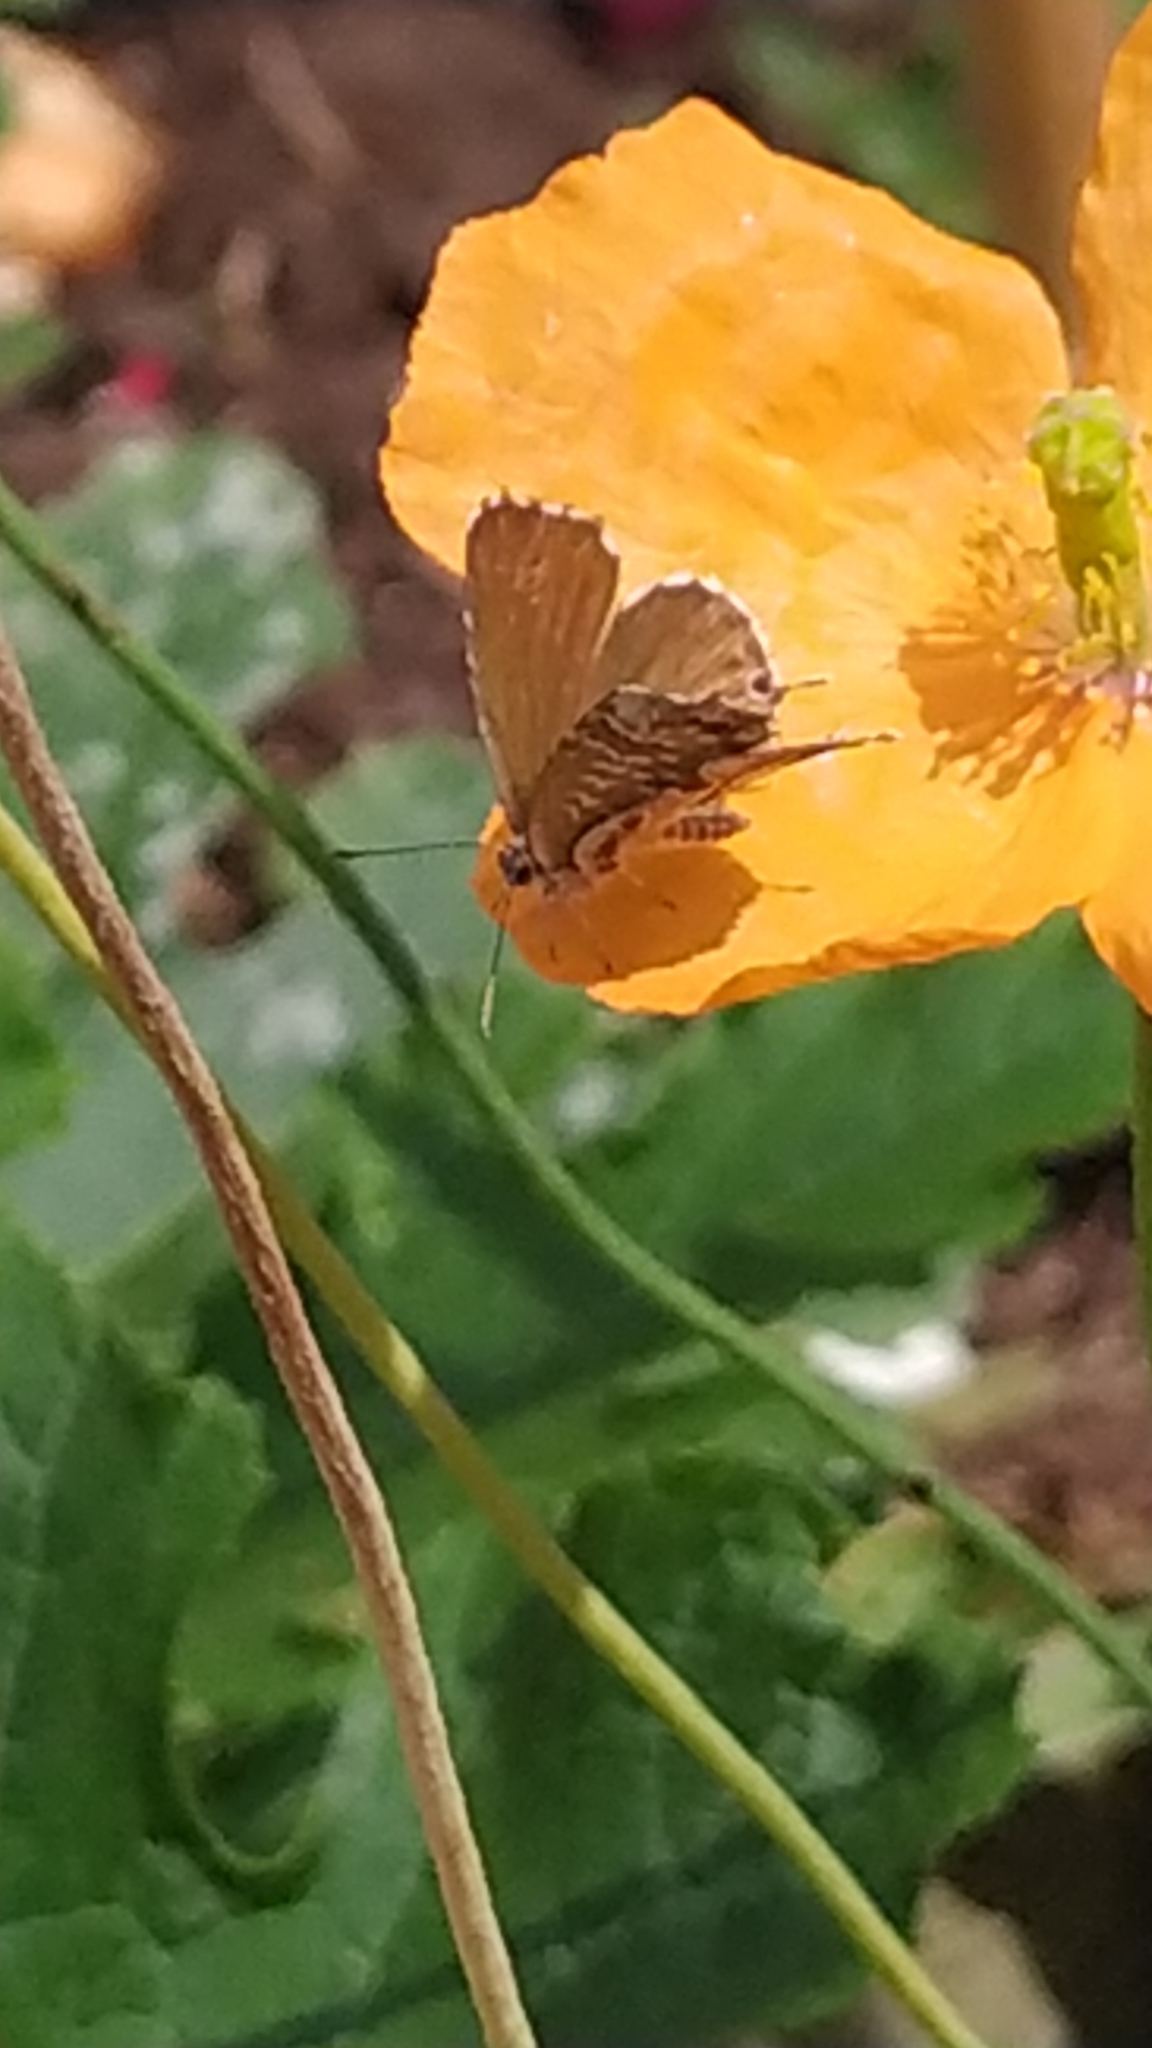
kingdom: Animalia
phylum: Arthropoda
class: Insecta
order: Lepidoptera
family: Lycaenidae
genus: Cacyreus
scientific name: Cacyreus marshalli
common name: Geranium bronze
